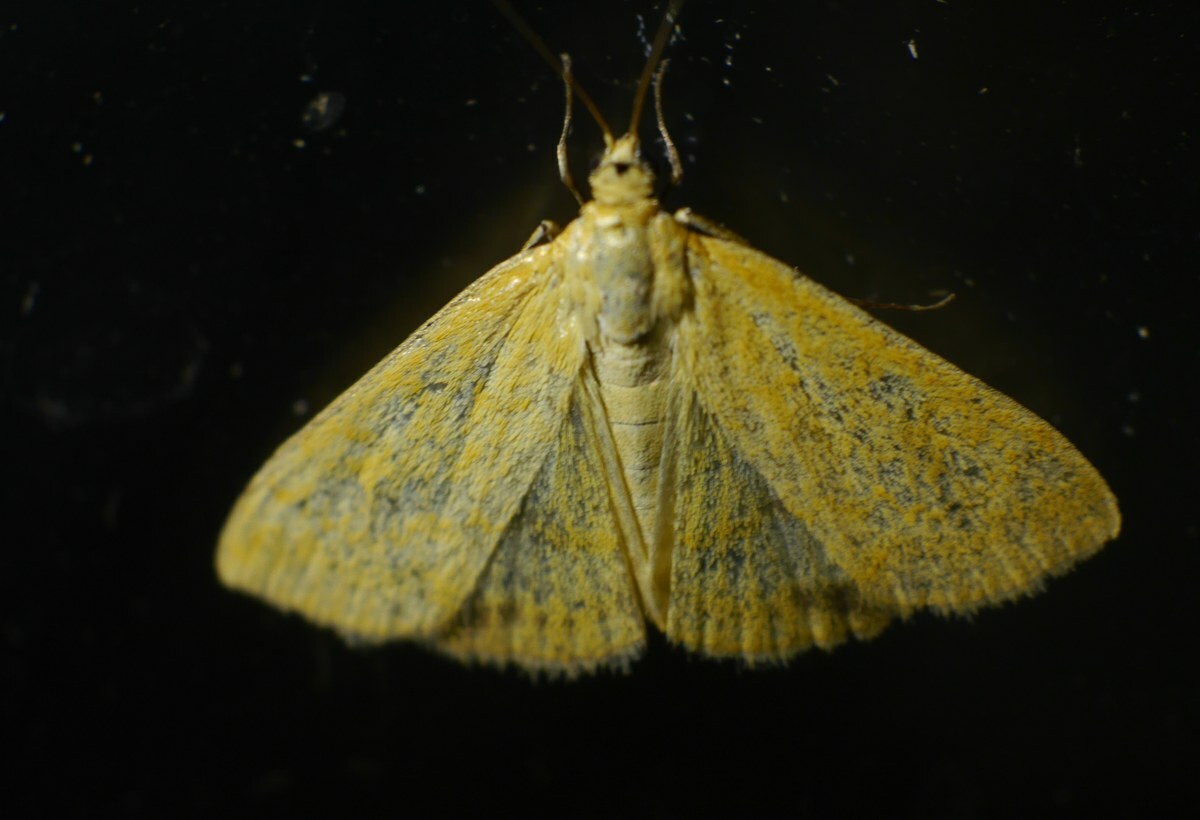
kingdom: Animalia
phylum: Arthropoda
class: Insecta
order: Lepidoptera
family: Crambidae
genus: Sitochroa
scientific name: Sitochroa verticalis
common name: Lesser pearl
